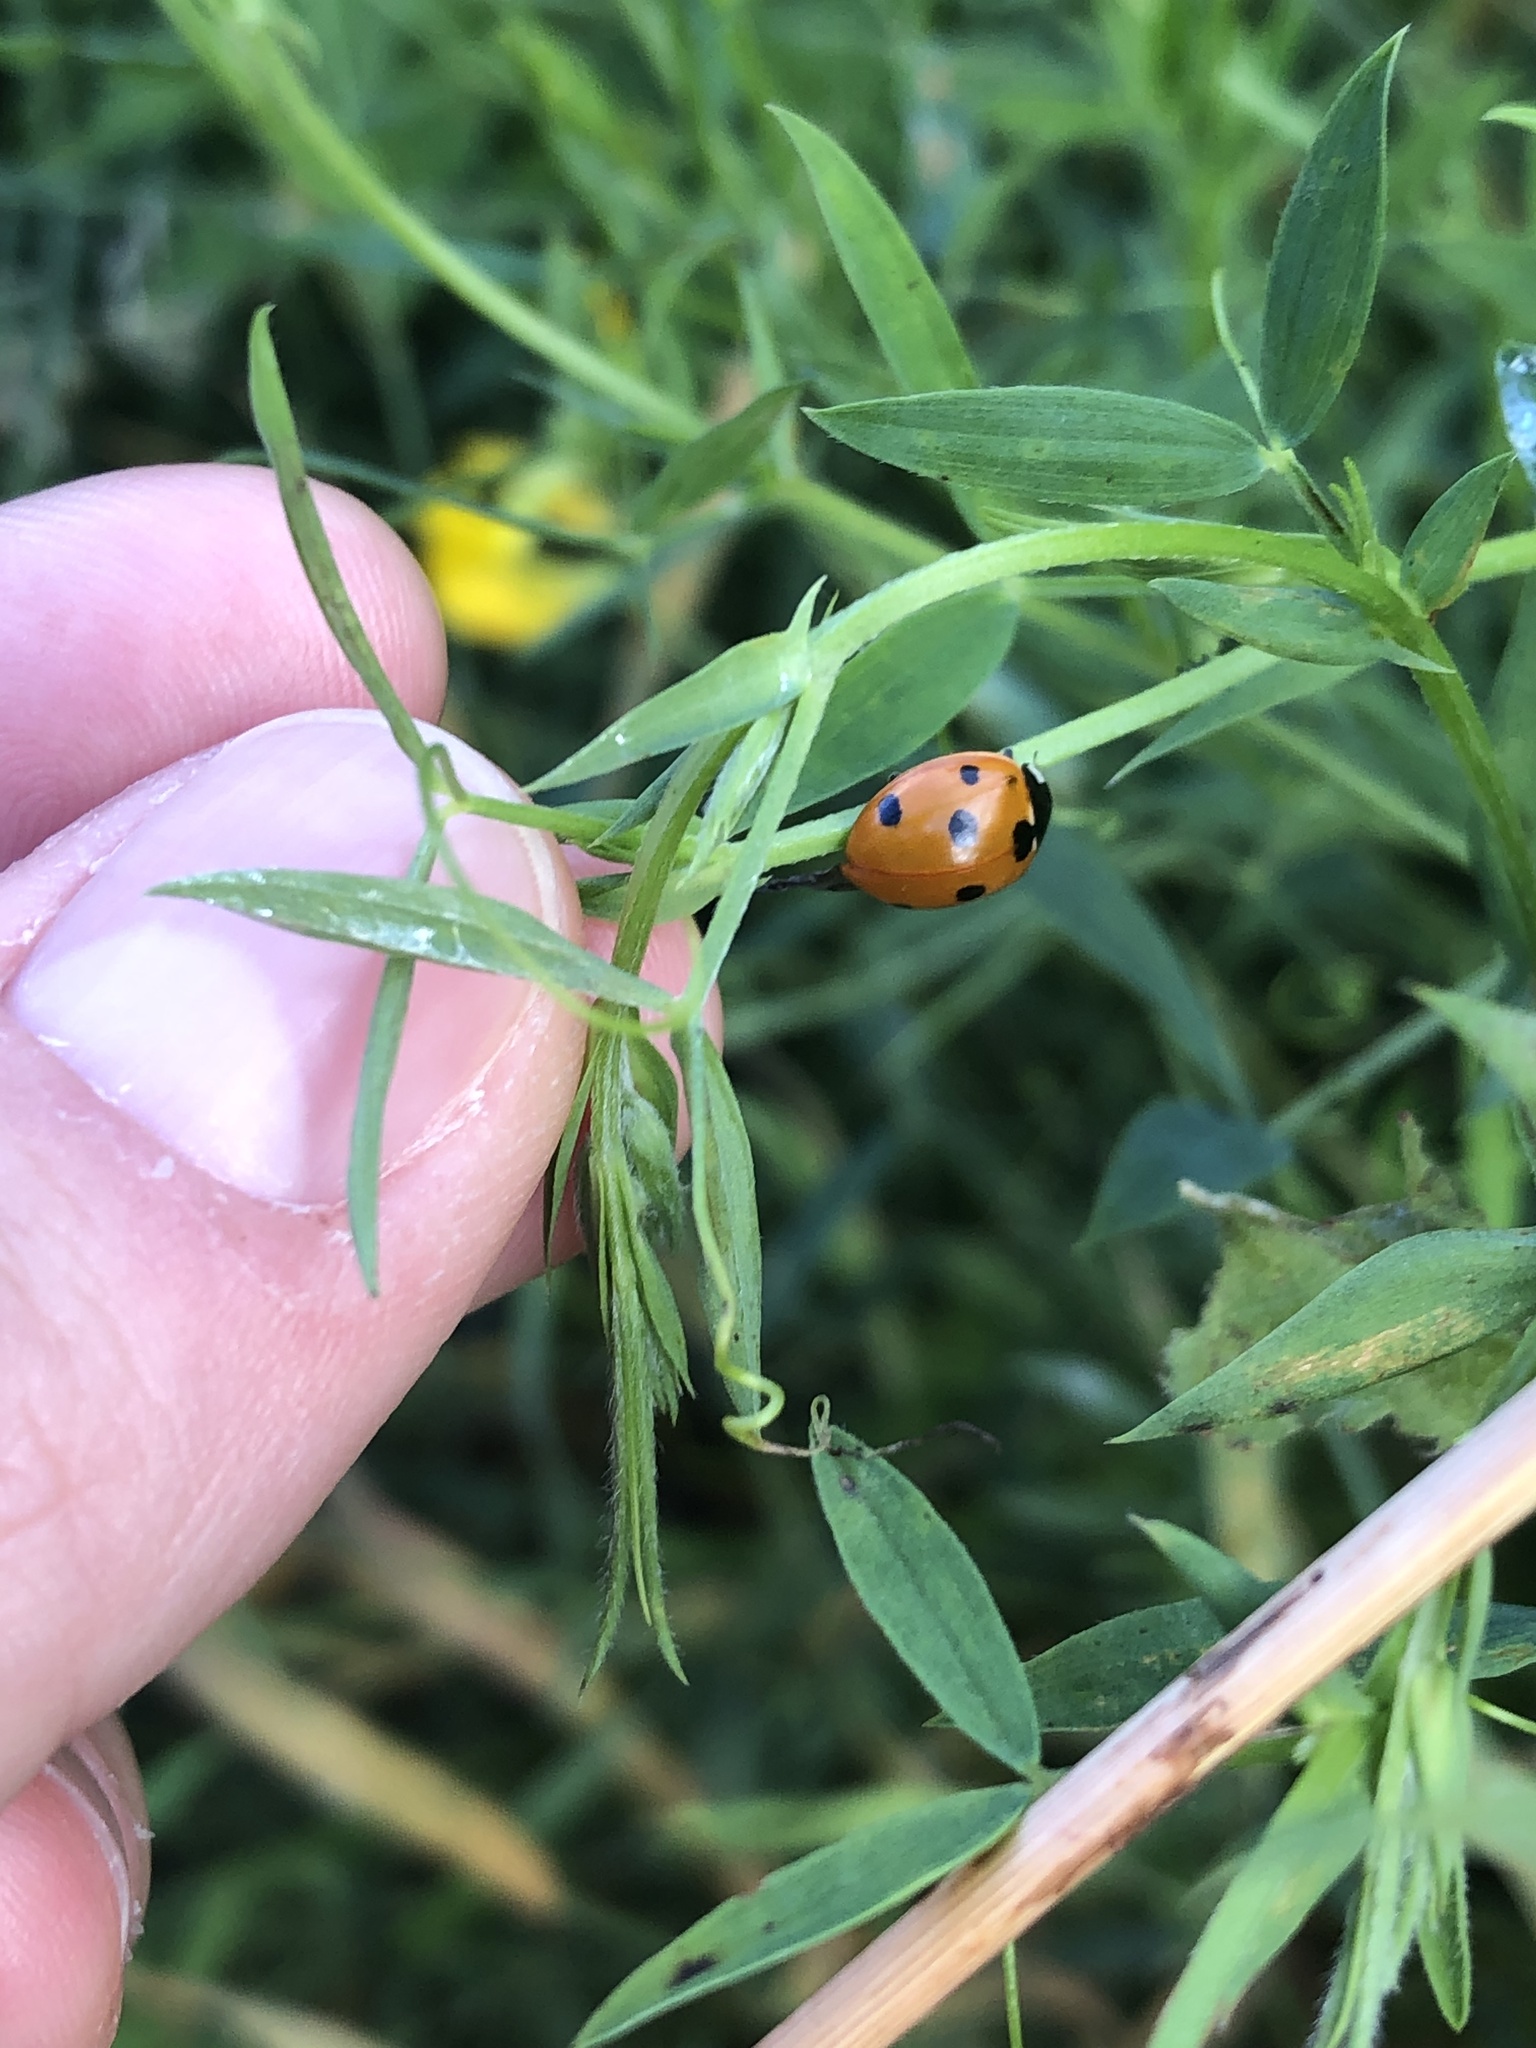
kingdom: Animalia
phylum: Arthropoda
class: Insecta
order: Coleoptera
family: Coccinellidae
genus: Coccinella
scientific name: Coccinella septempunctata
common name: Sevenspotted lady beetle
